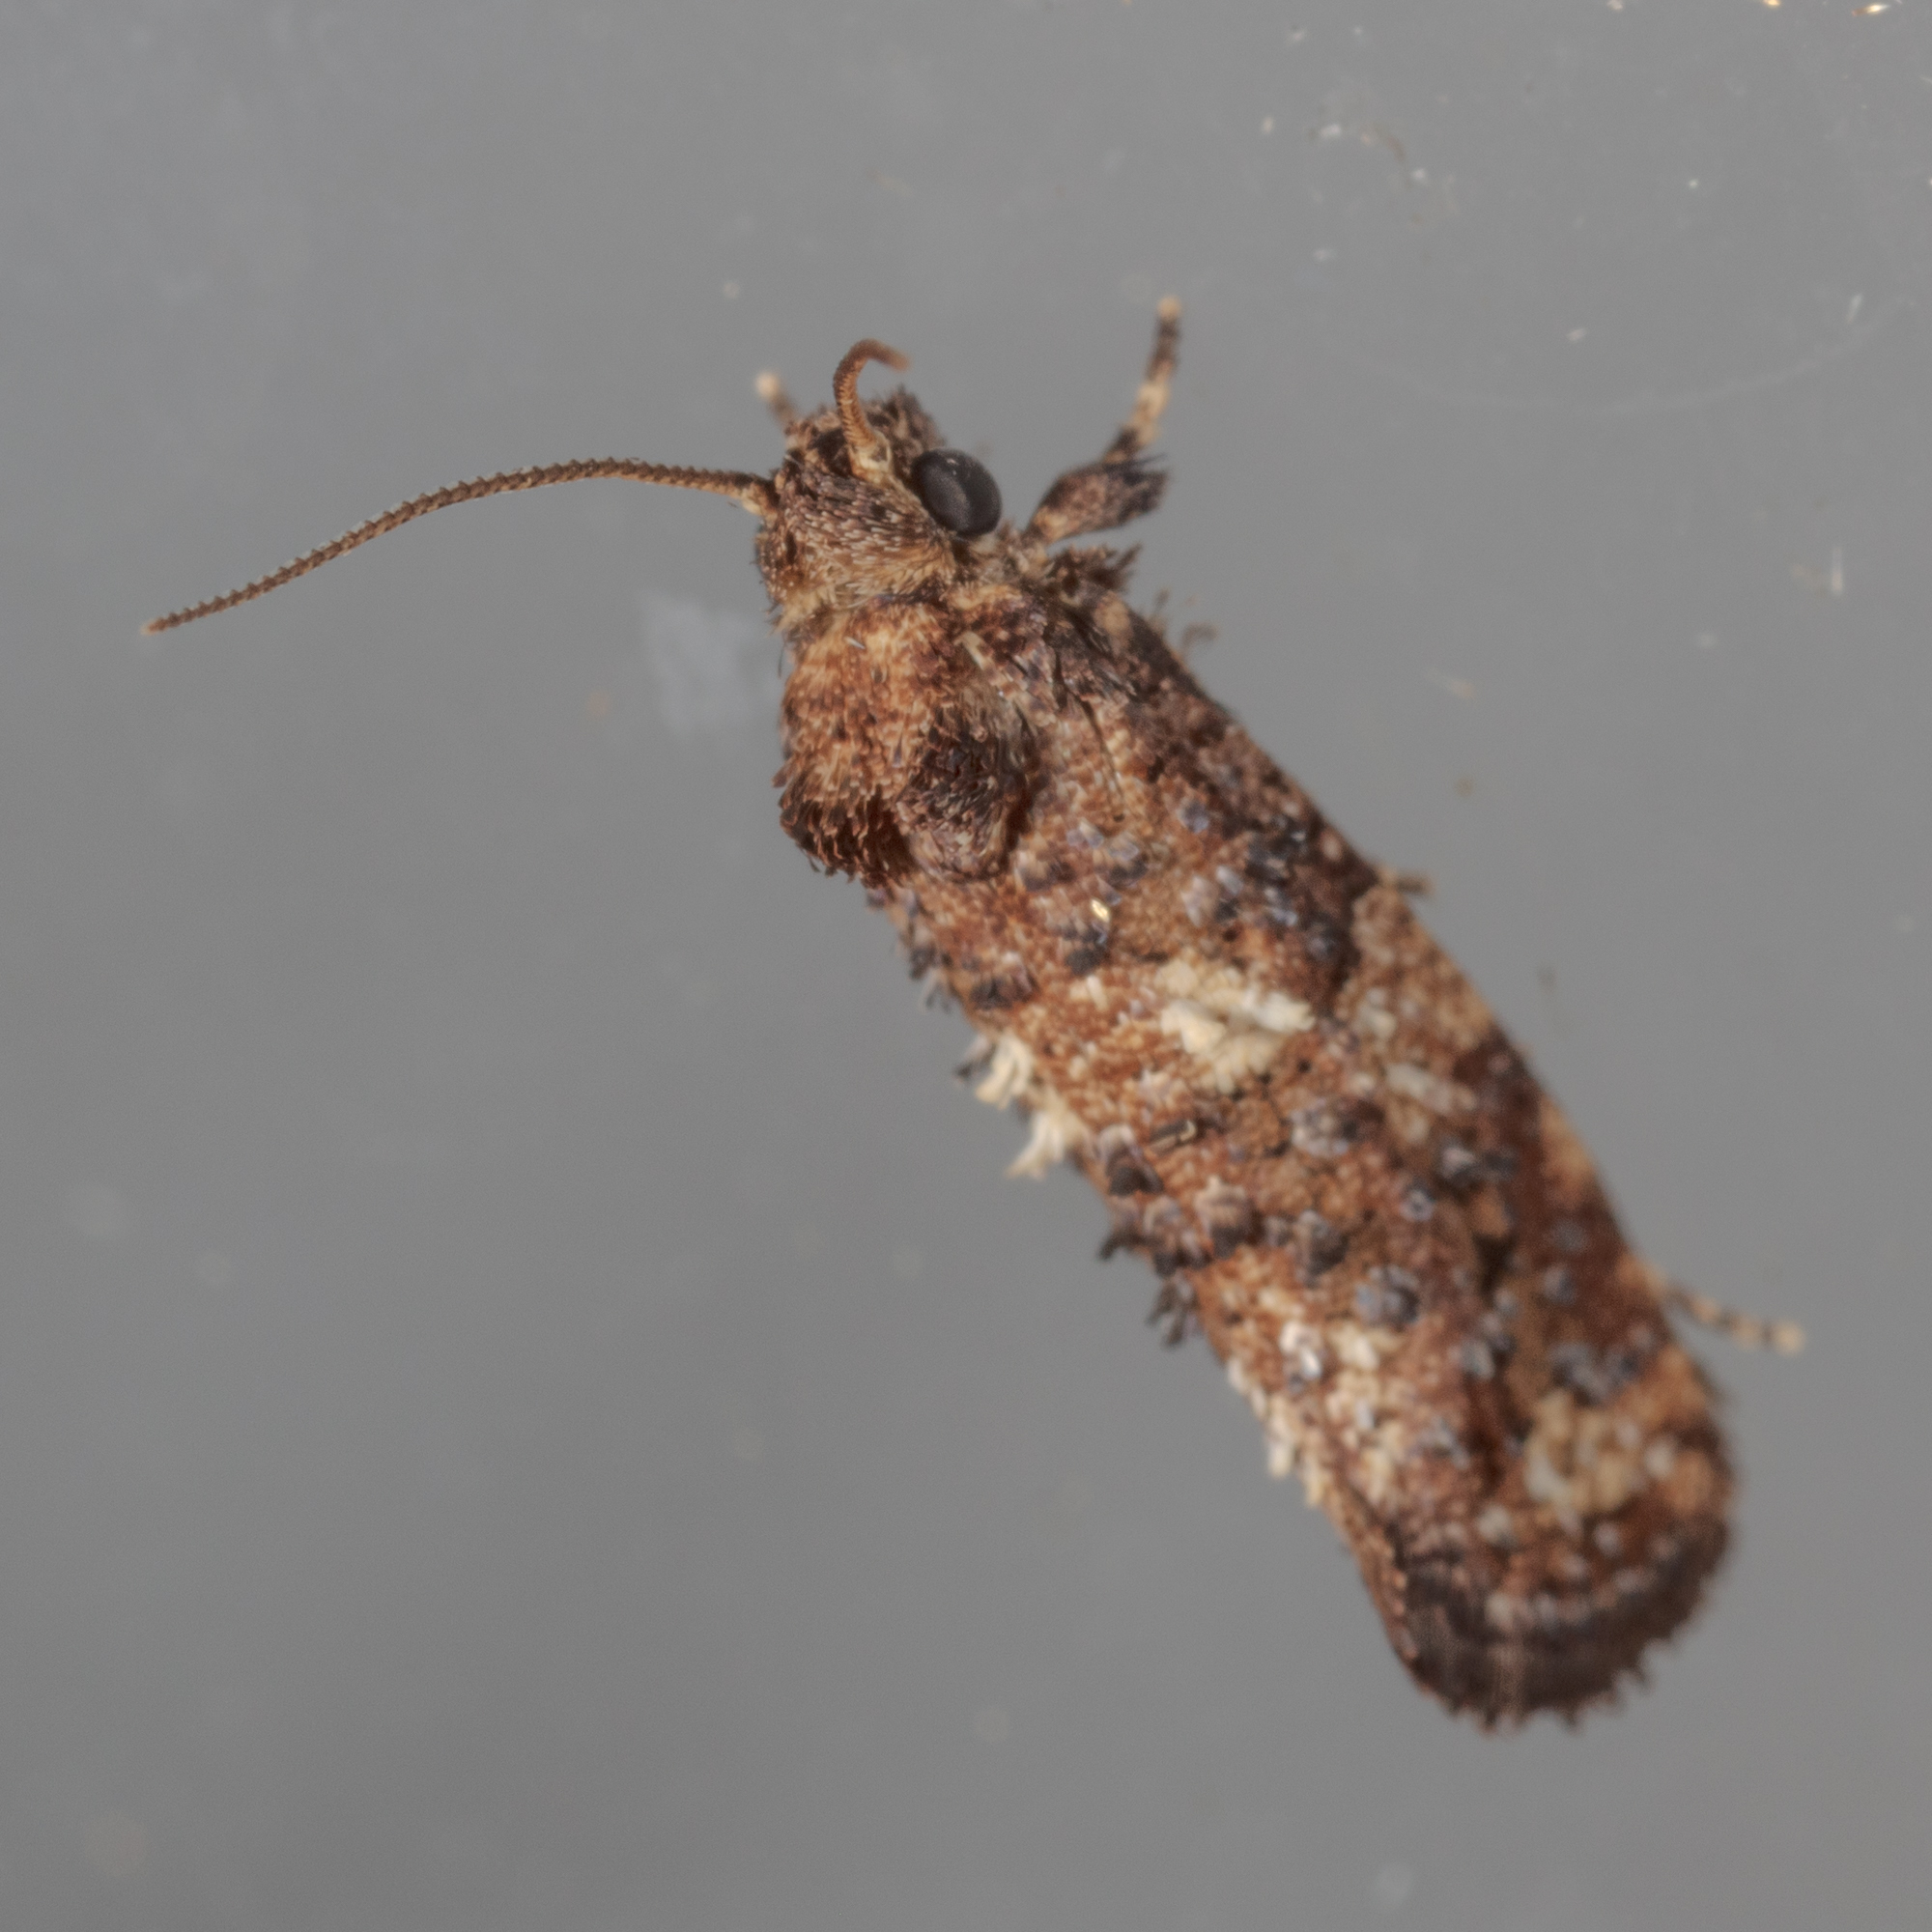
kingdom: Animalia
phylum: Arthropoda
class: Insecta
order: Lepidoptera
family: Tineidae
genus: Acrolophus
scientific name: Acrolophus cressoni
